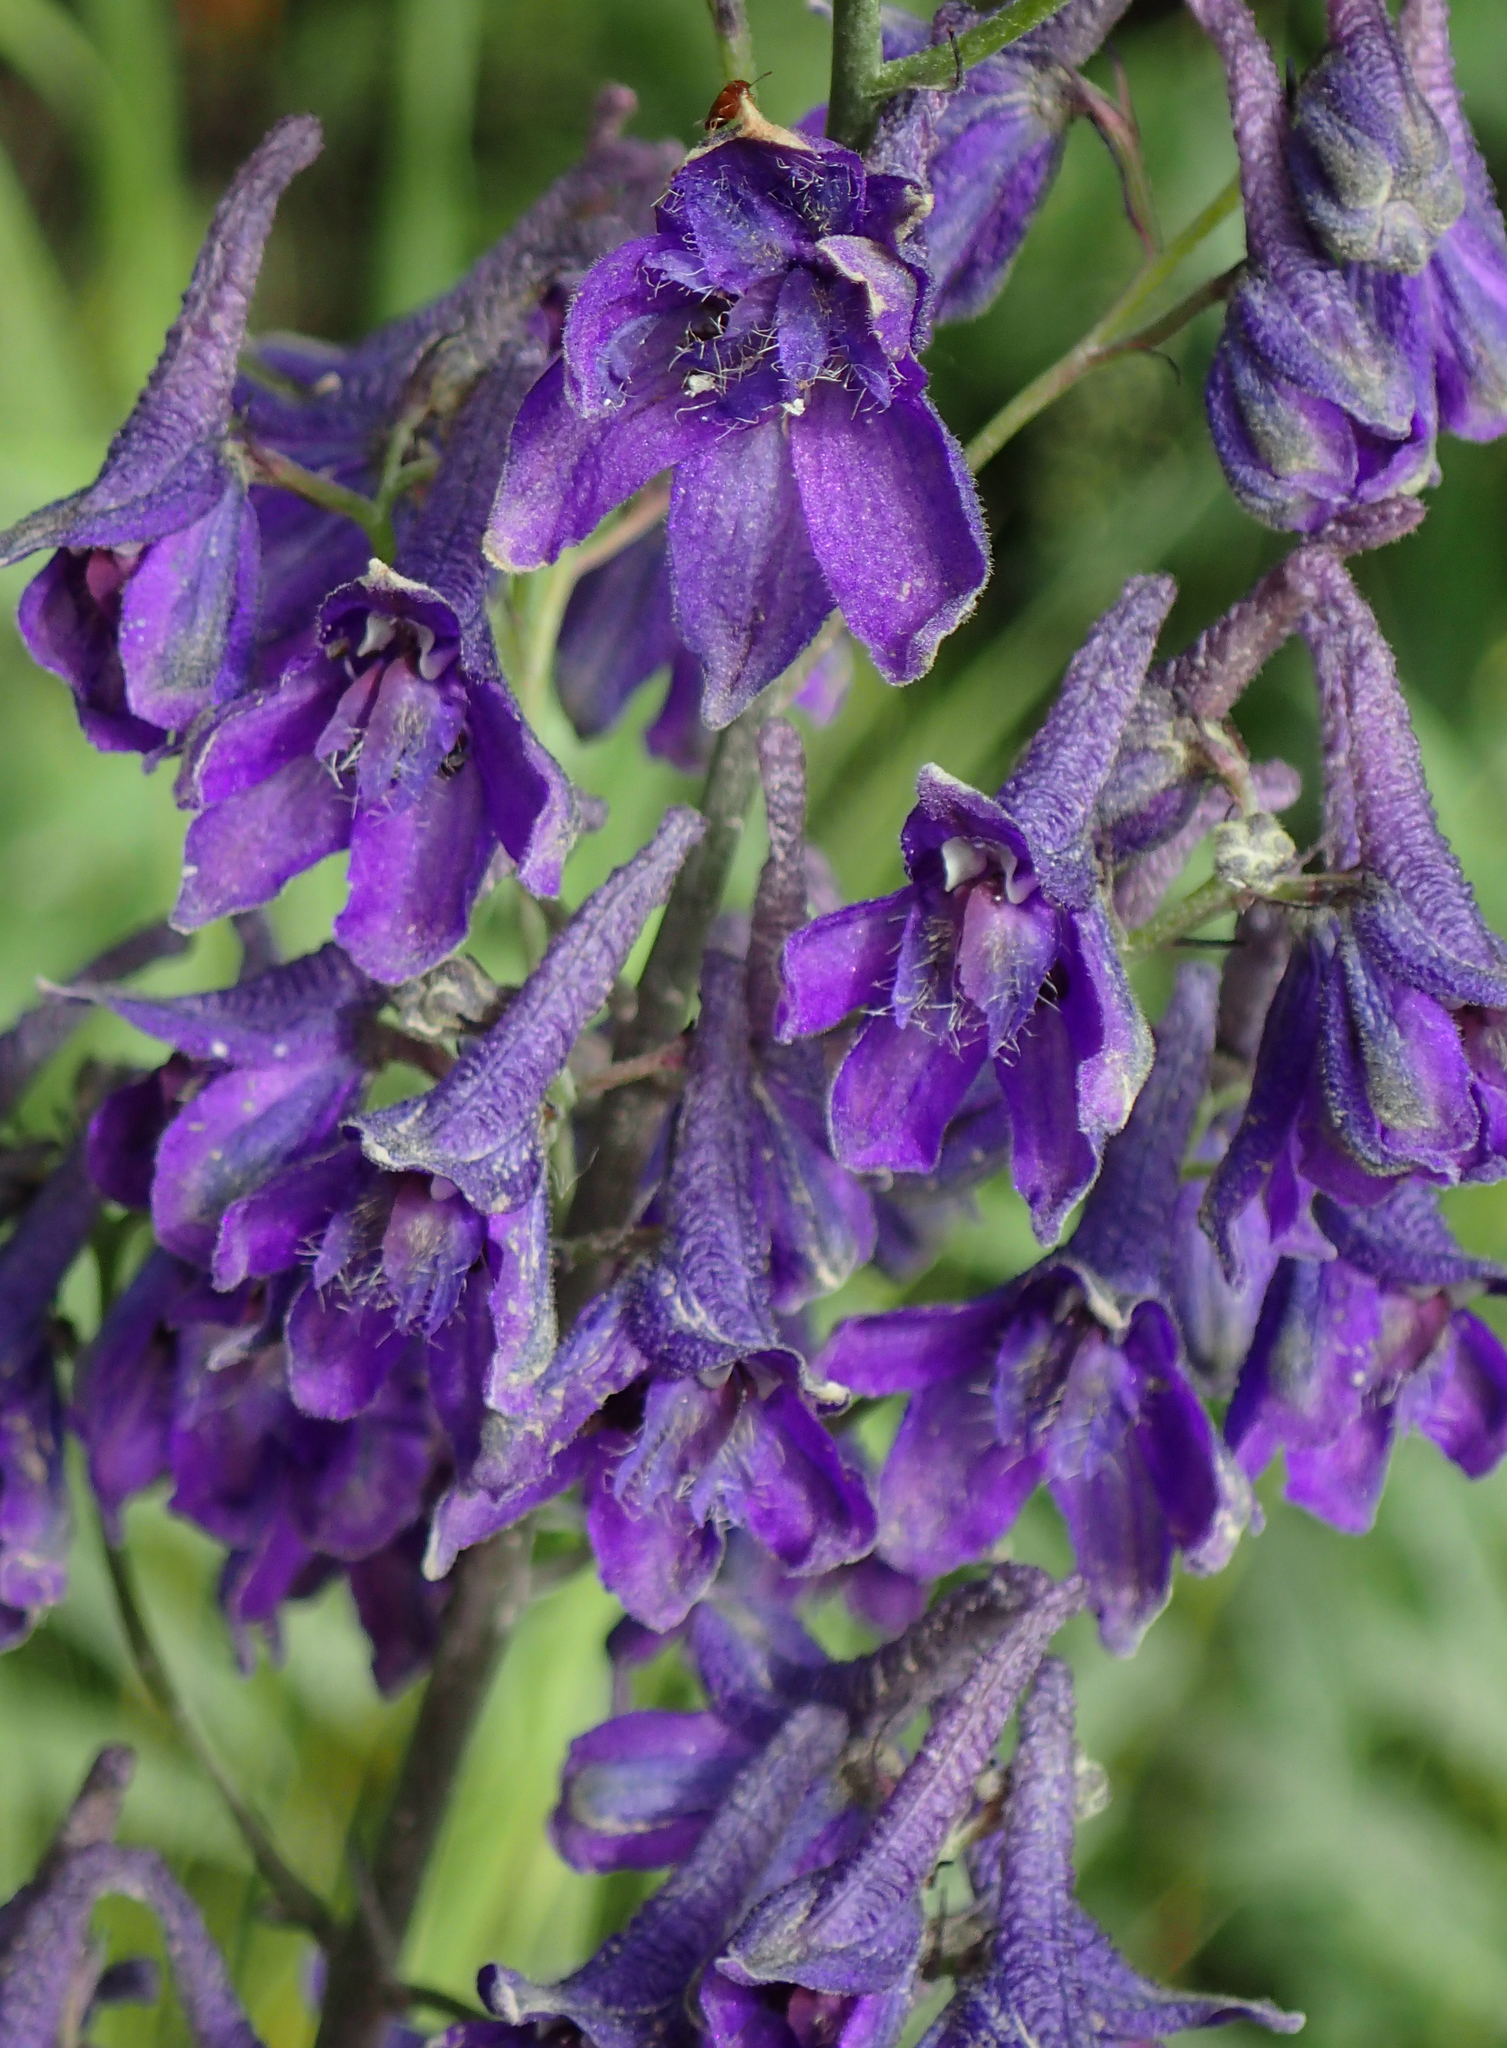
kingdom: Plantae
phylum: Tracheophyta
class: Magnoliopsida
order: Ranunculales
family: Ranunculaceae
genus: Delphinium
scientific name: Delphinium glaucum
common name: Brown's larkspur
